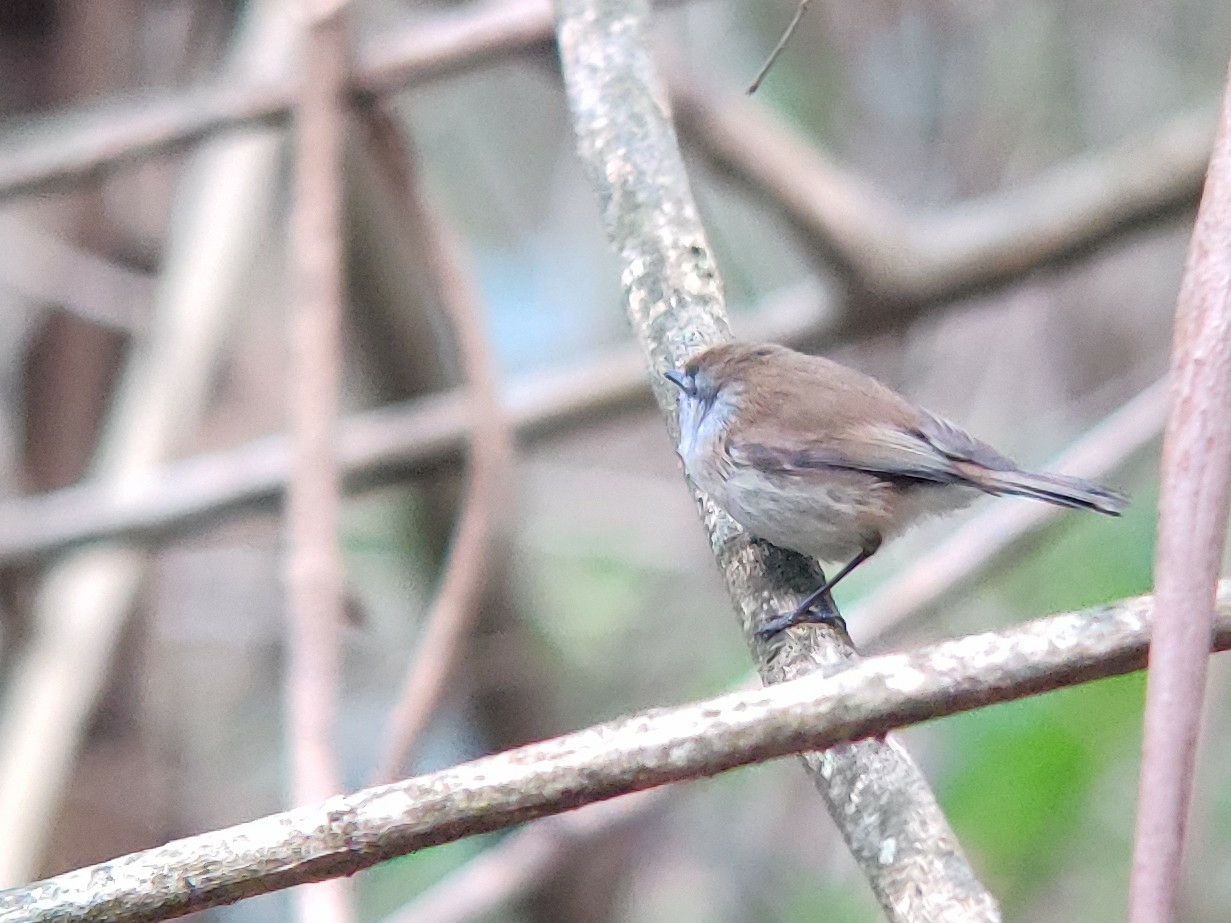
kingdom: Animalia
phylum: Chordata
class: Aves
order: Passeriformes
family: Acanthizidae
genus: Gerygone
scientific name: Gerygone mouki
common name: Brown gerygone
